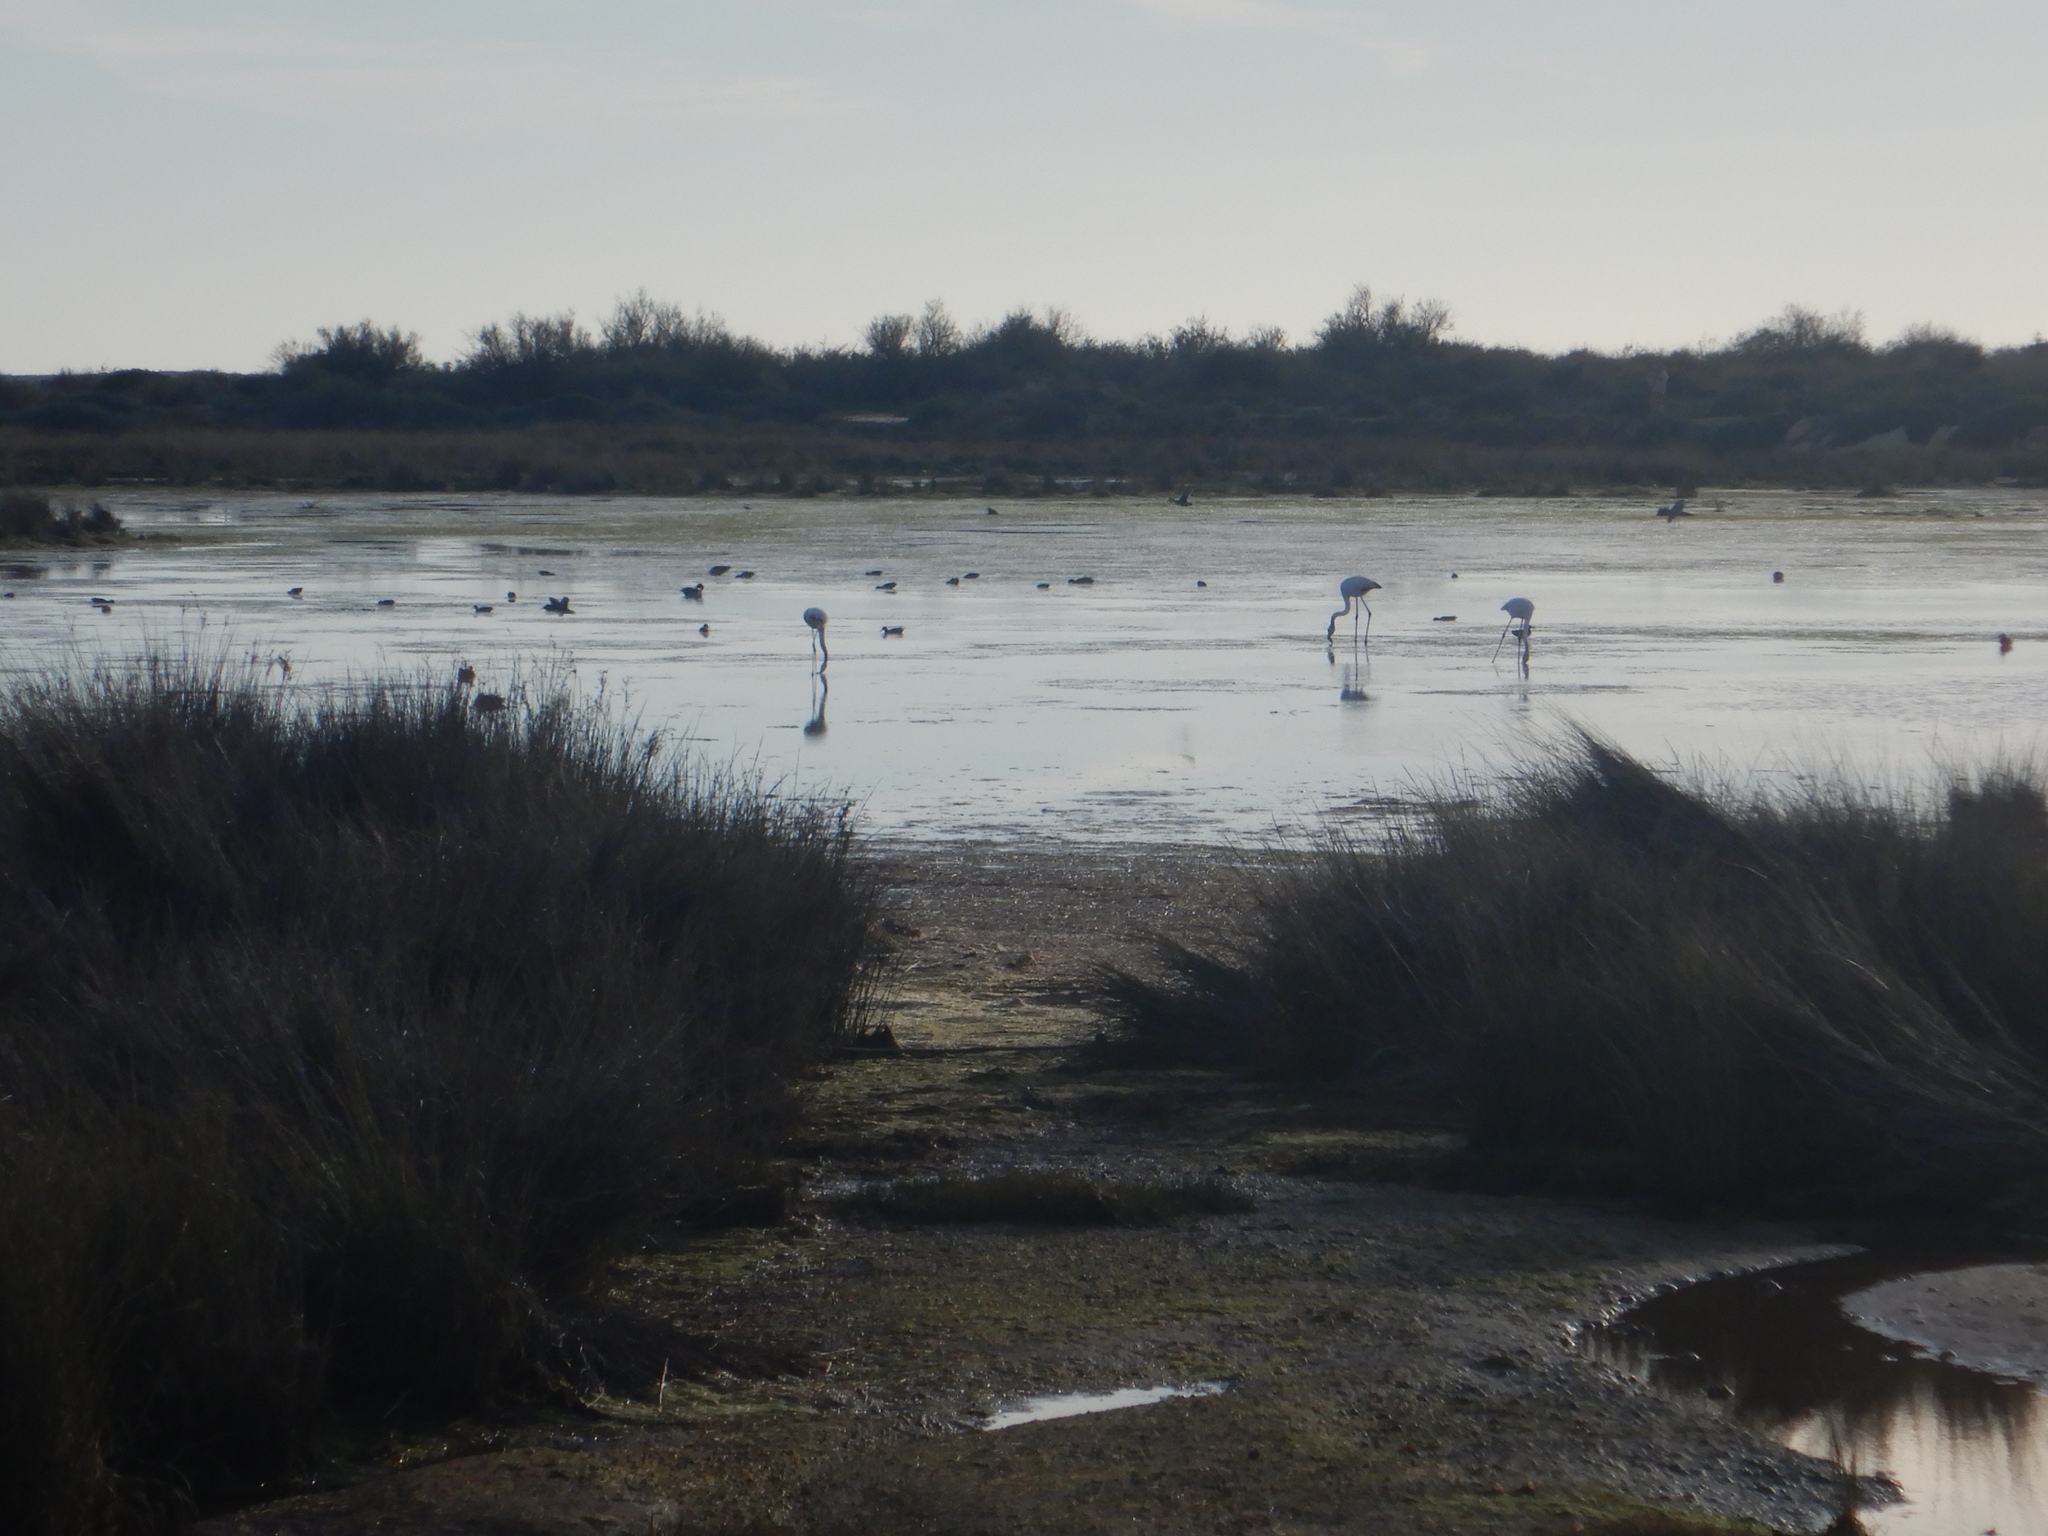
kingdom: Animalia
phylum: Chordata
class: Aves
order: Phoenicopteriformes
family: Phoenicopteridae
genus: Phoenicopterus
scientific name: Phoenicopterus roseus
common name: Greater flamingo
